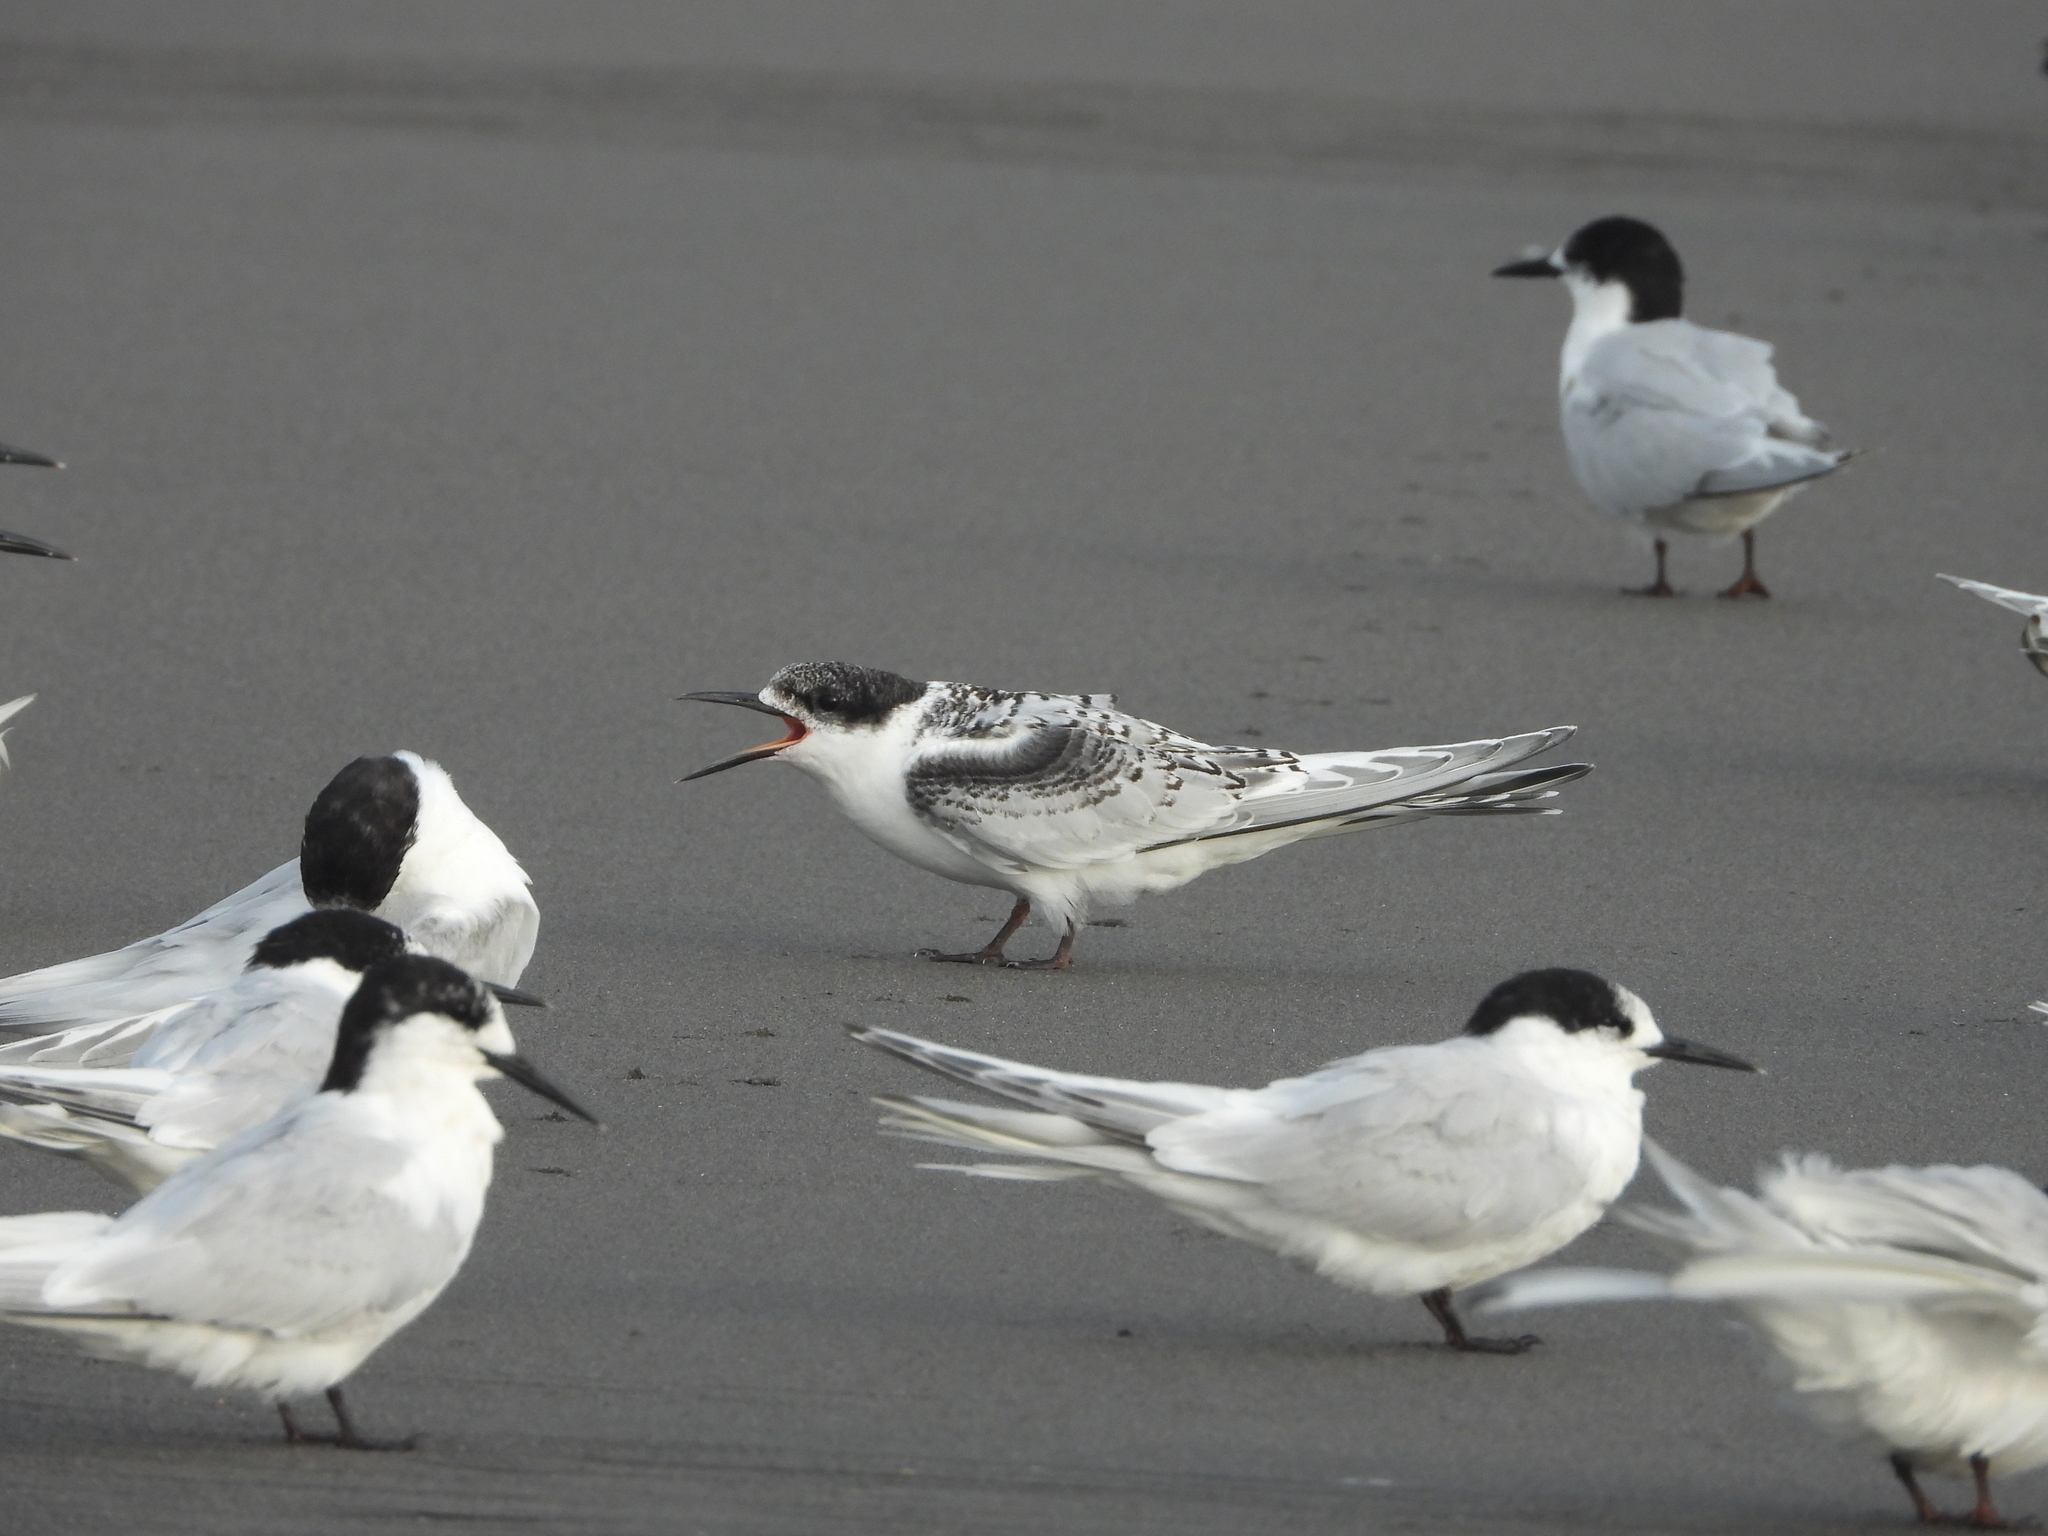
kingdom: Animalia
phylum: Chordata
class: Aves
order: Charadriiformes
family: Laridae
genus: Sterna
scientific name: Sterna striata
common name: White-fronted tern
